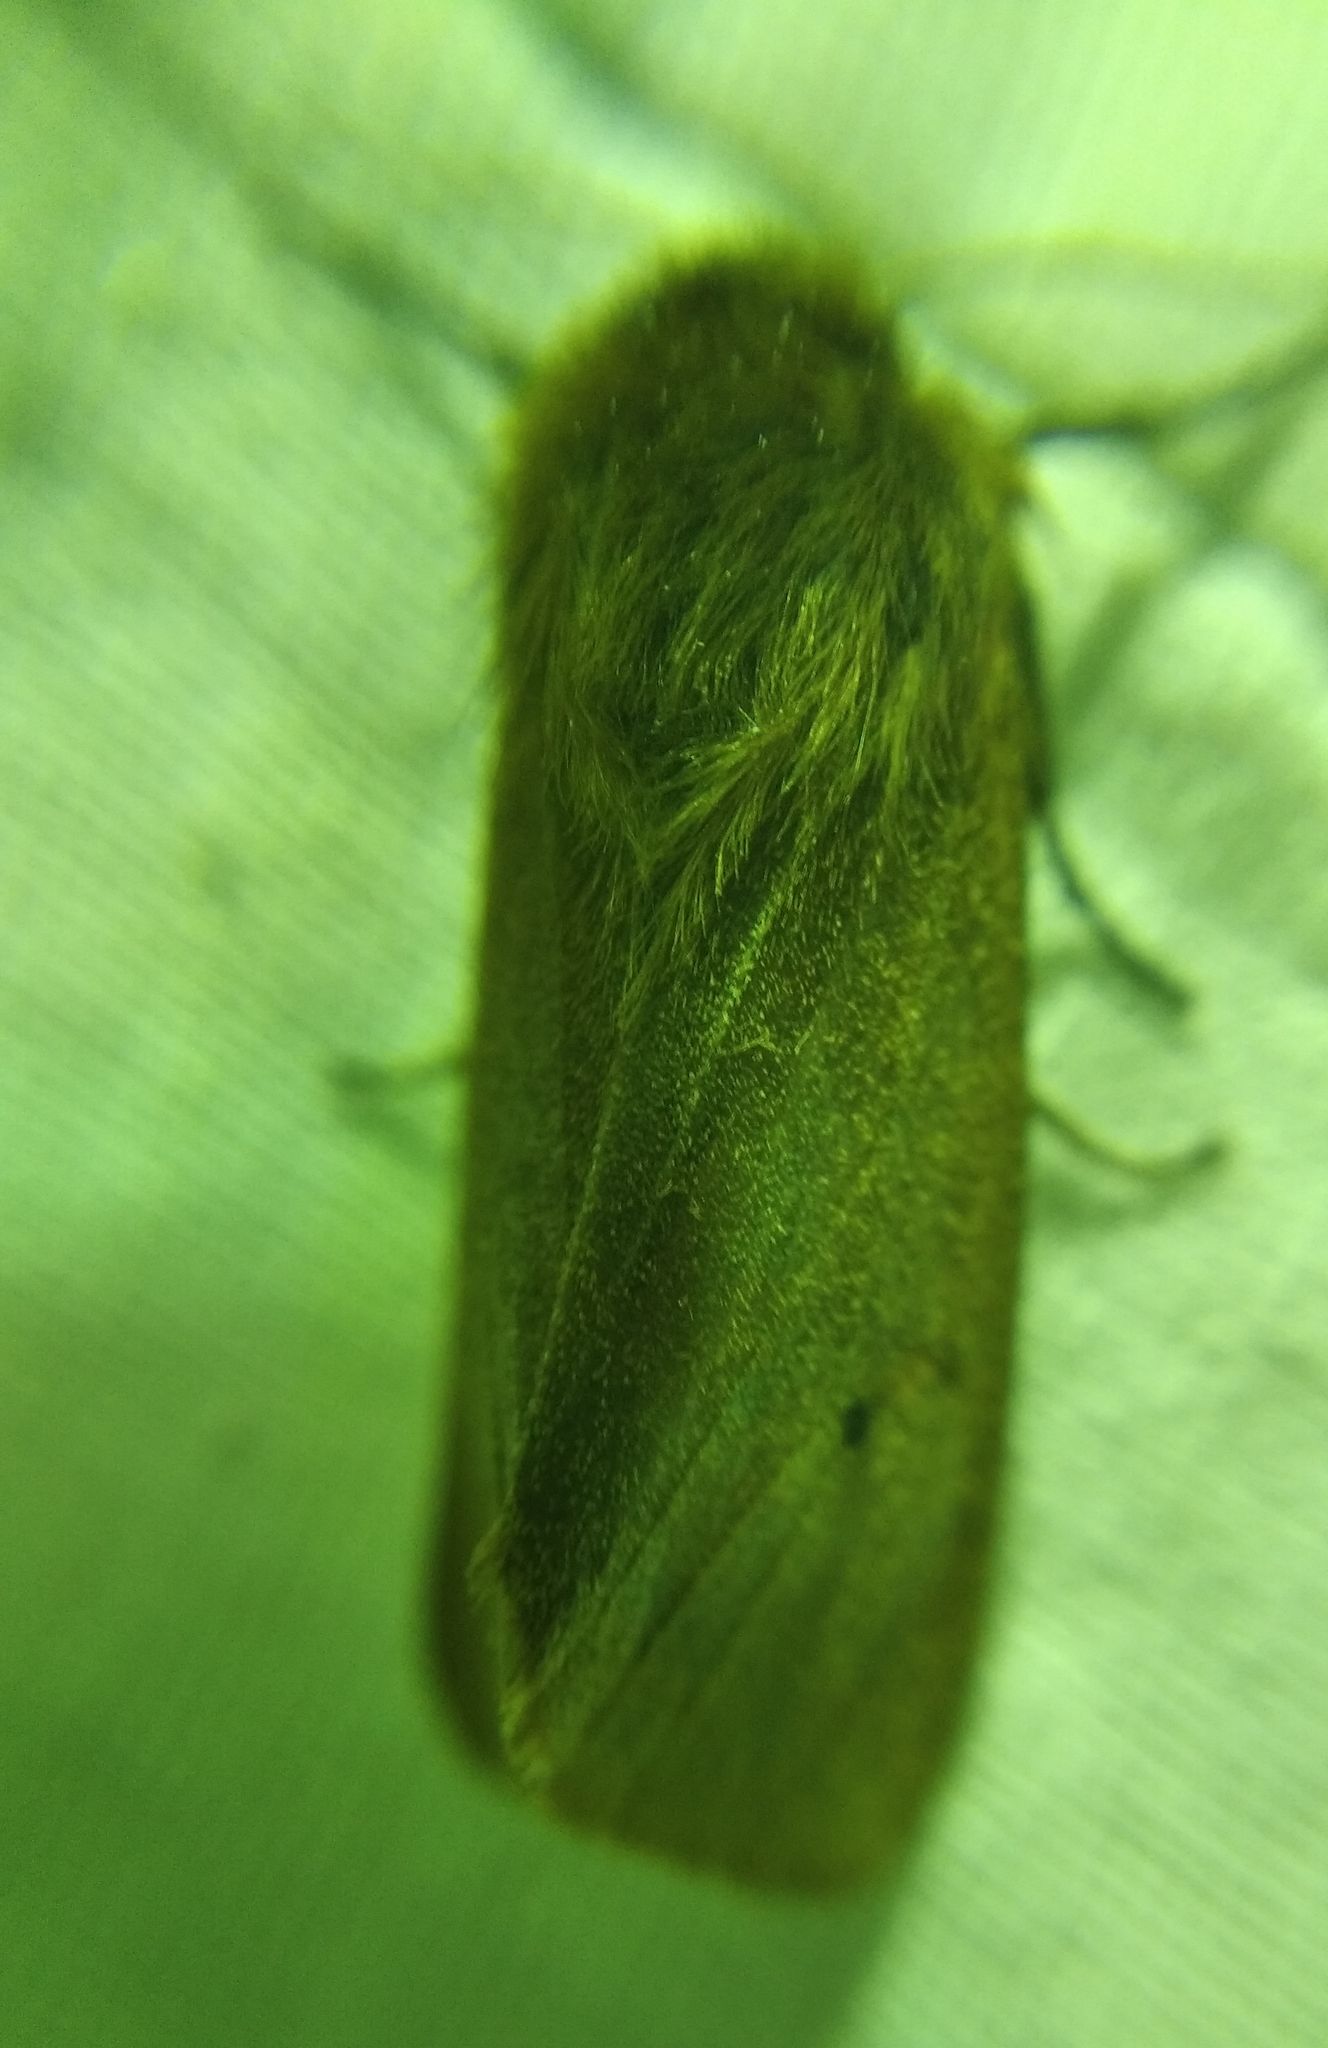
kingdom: Animalia
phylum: Arthropoda
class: Insecta
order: Lepidoptera
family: Erebidae
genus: Phragmatobia
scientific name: Phragmatobia fuliginosa
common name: Ruby tiger
